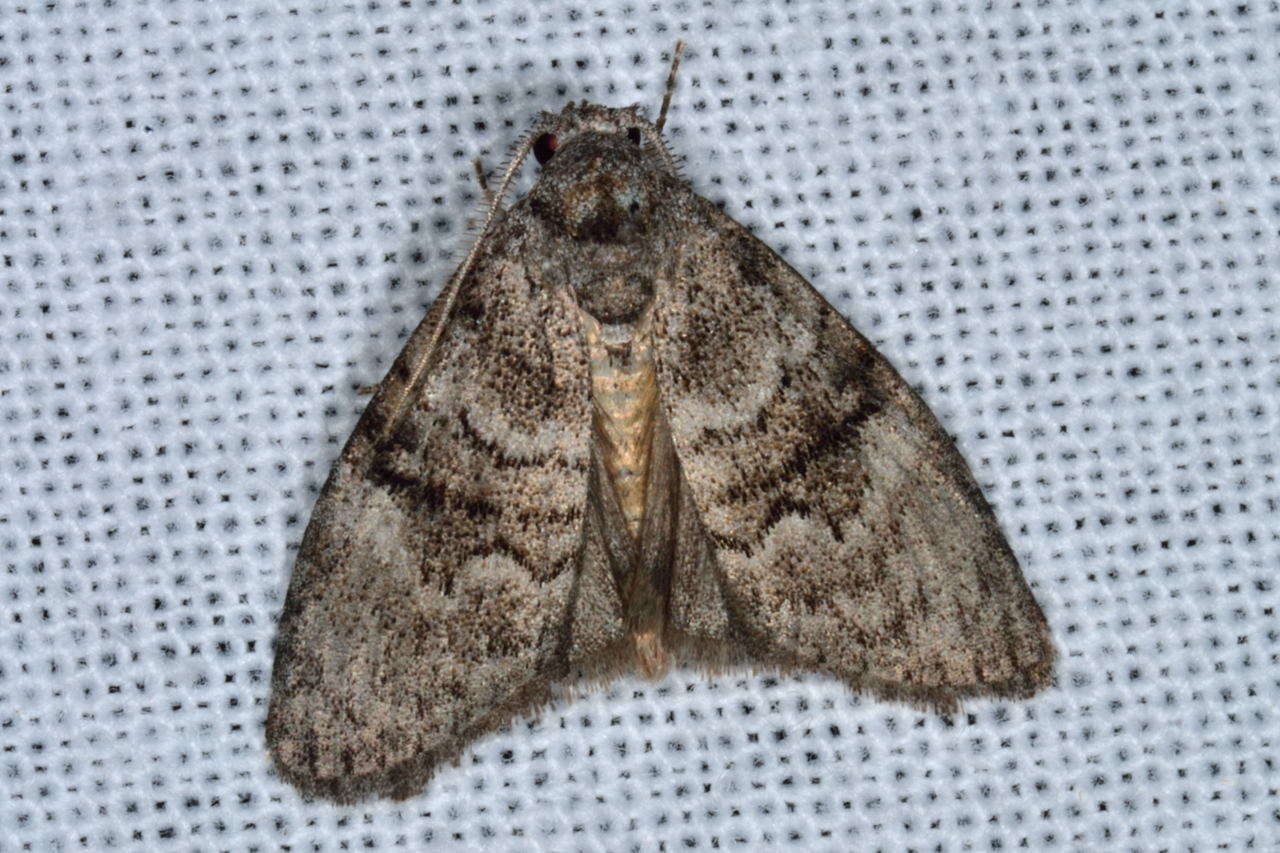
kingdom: Animalia
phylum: Arthropoda
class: Insecta
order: Lepidoptera
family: Nolidae
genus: Uraba
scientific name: Uraba lugens
